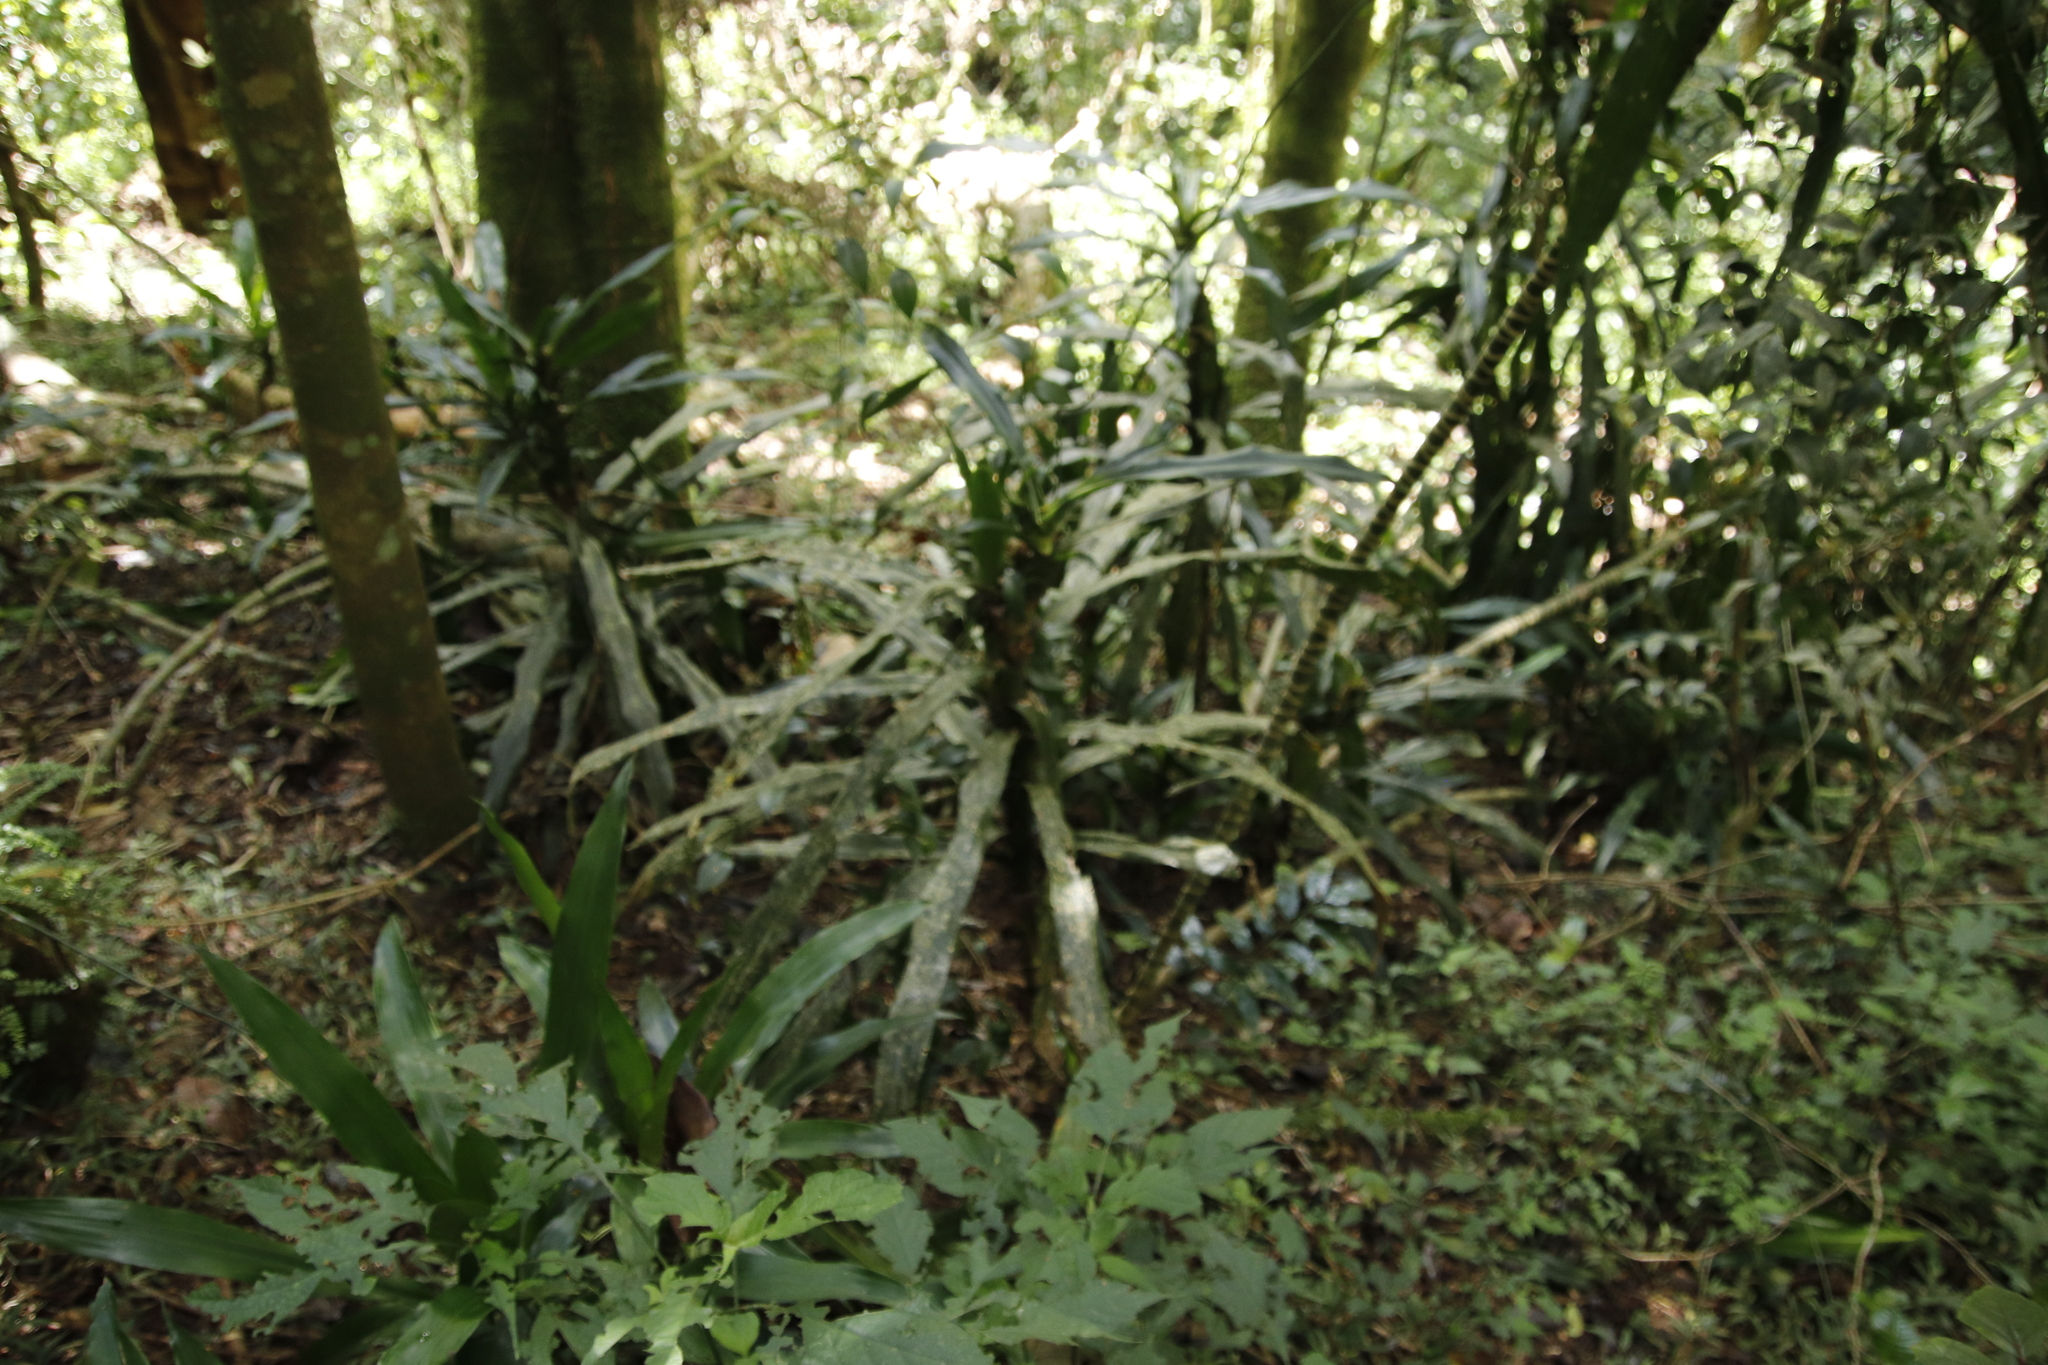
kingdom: Plantae
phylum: Tracheophyta
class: Liliopsida
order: Asparagales
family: Asparagaceae
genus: Dracaena
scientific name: Dracaena fragrans
